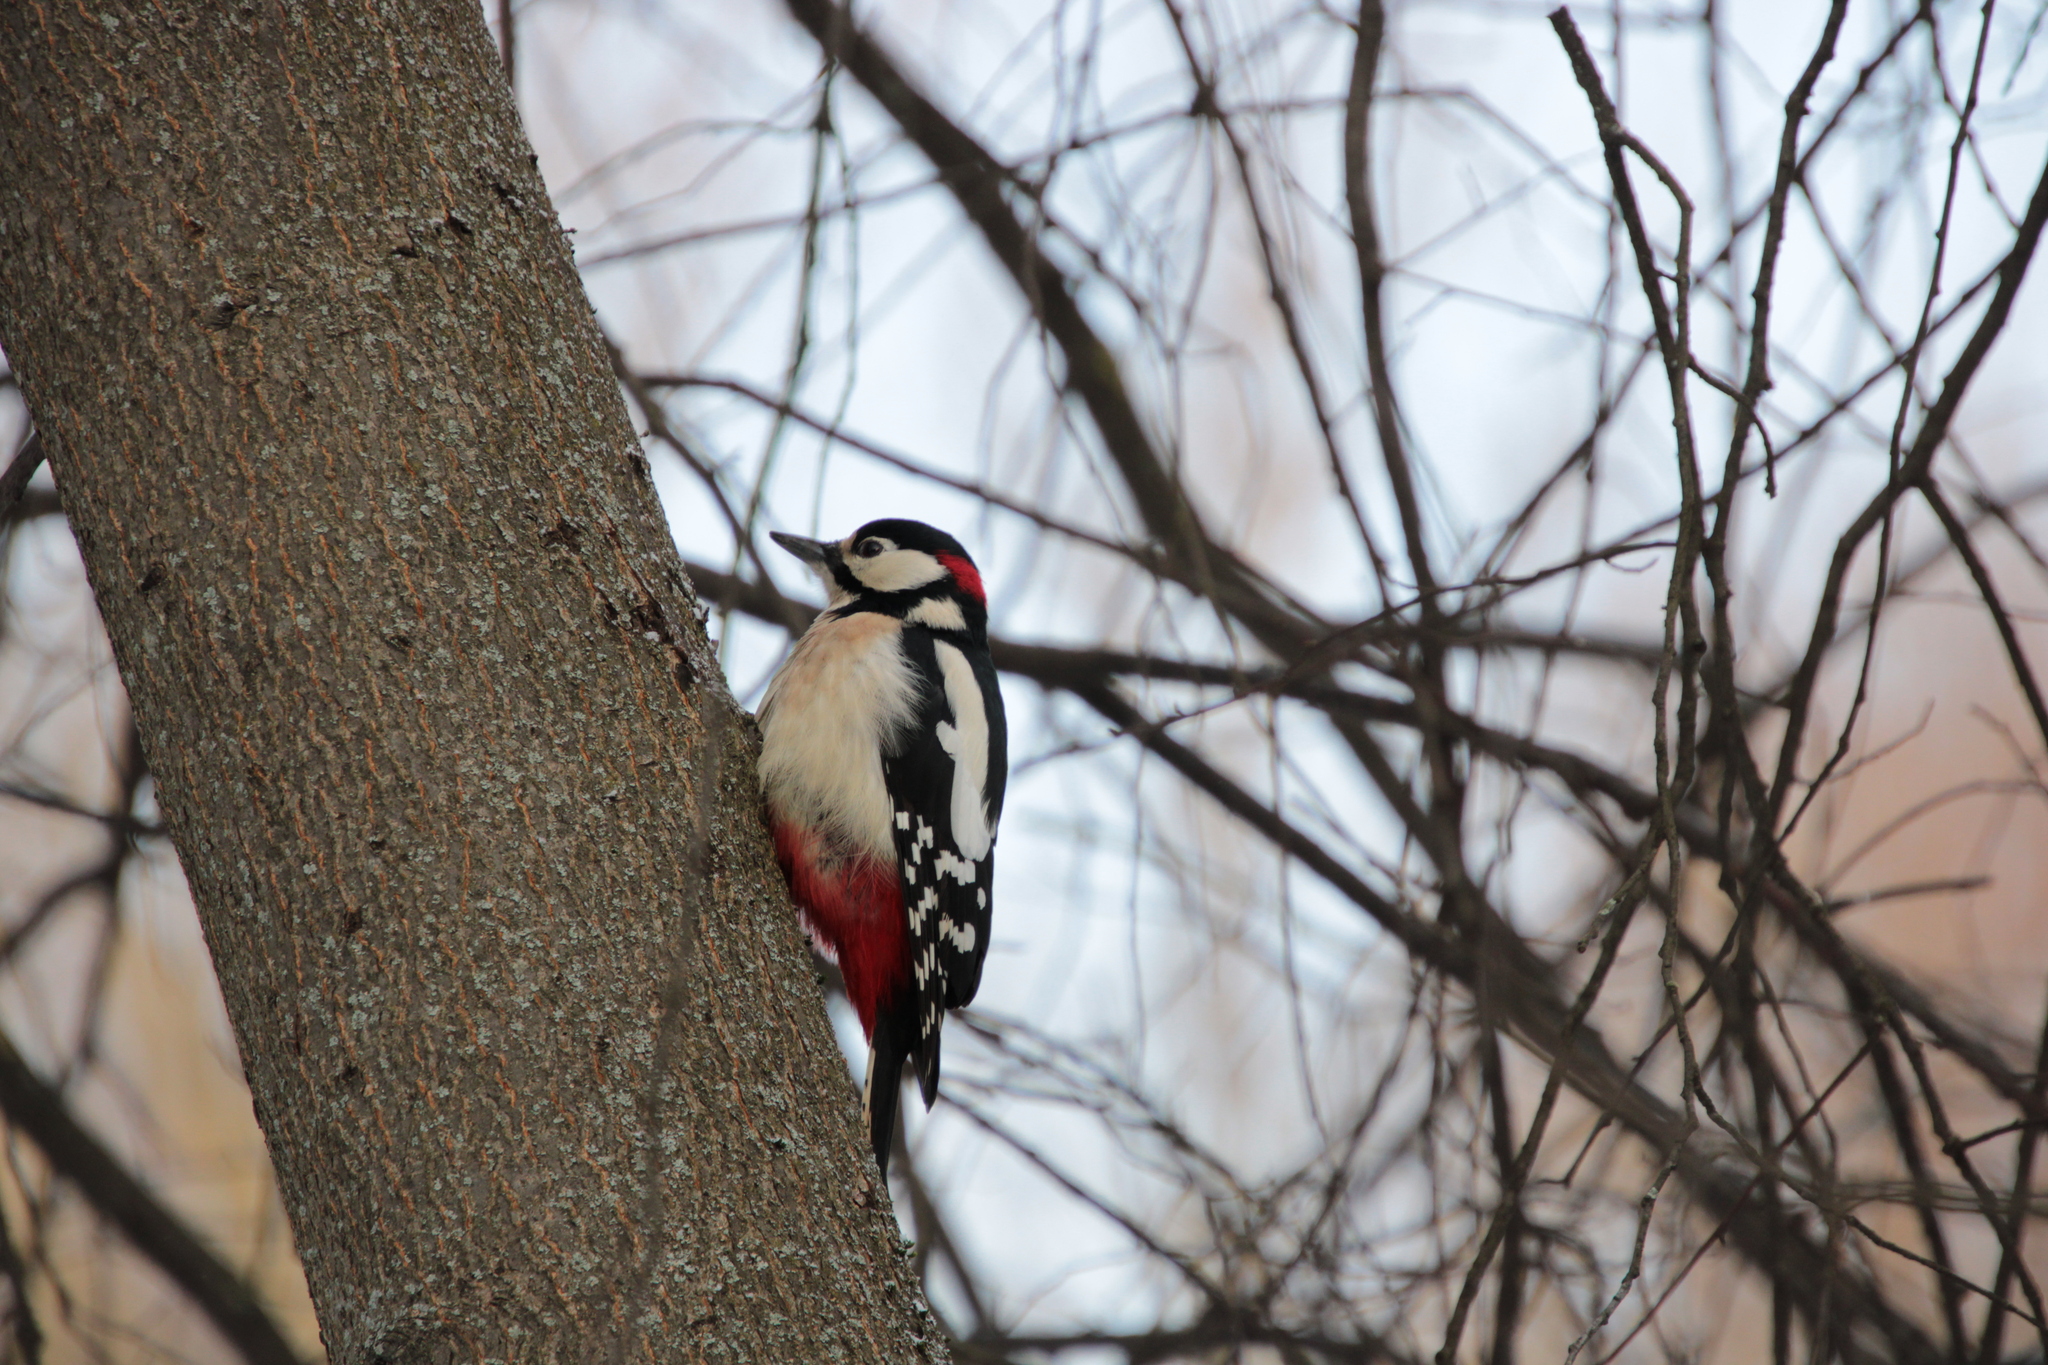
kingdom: Animalia
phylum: Chordata
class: Aves
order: Piciformes
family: Picidae
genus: Dendrocopos
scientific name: Dendrocopos major
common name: Great spotted woodpecker
